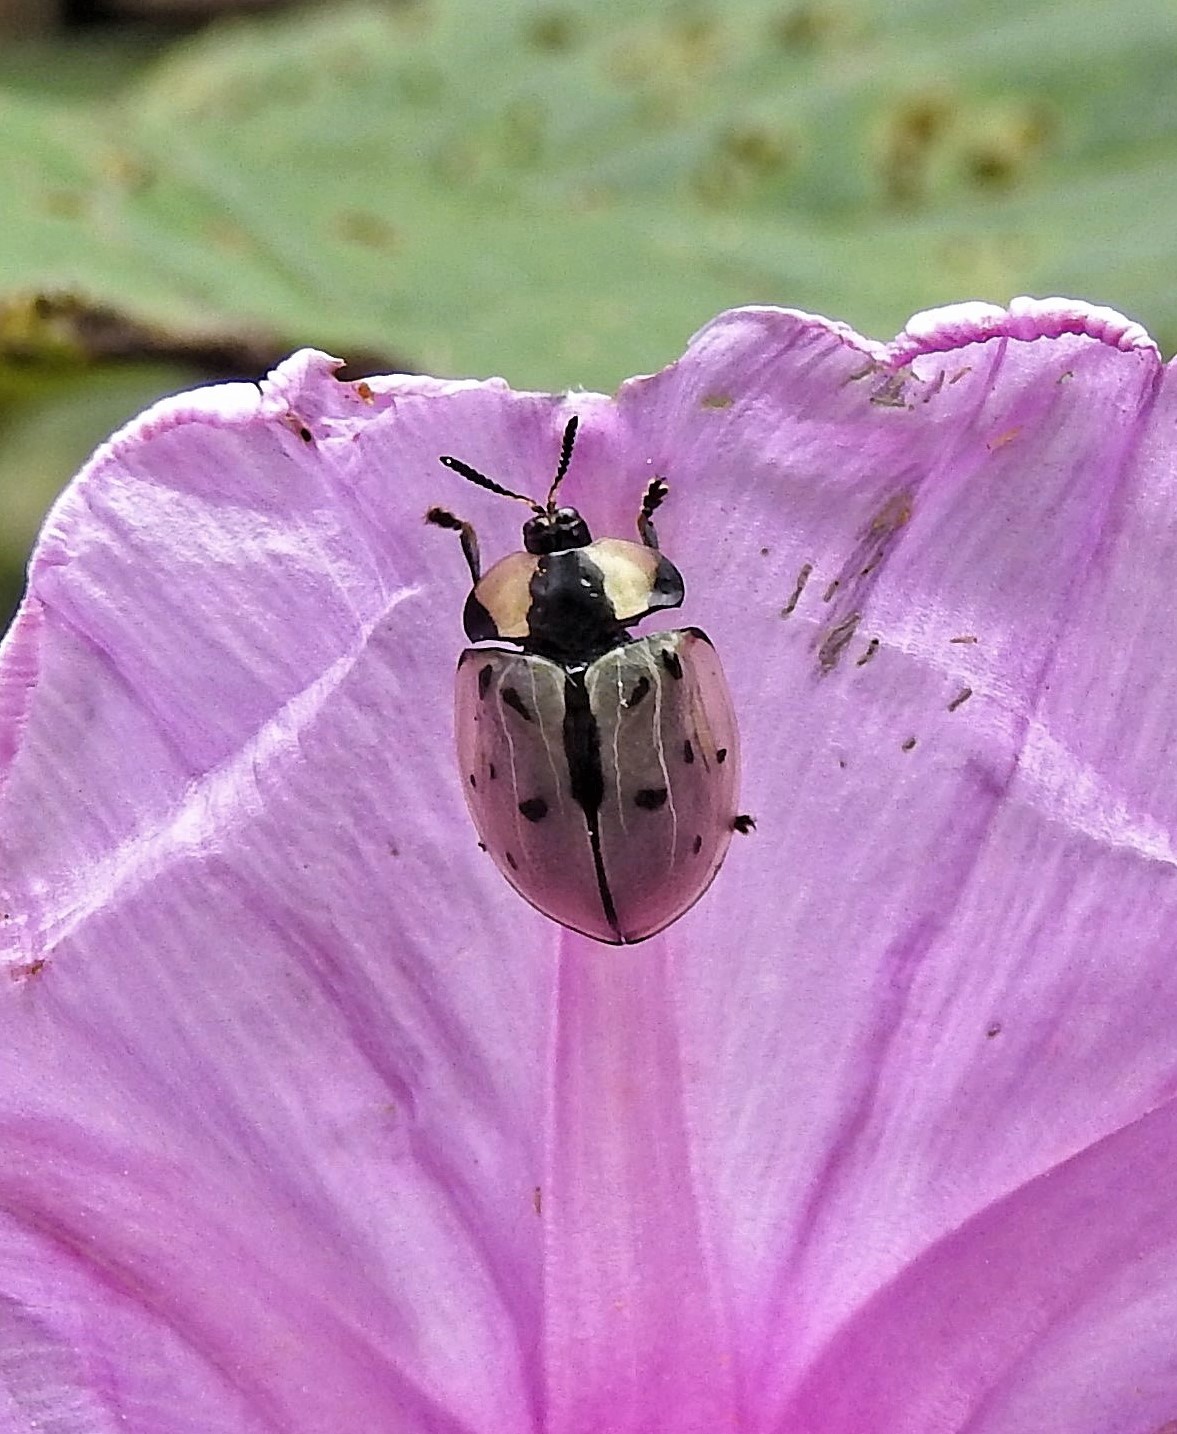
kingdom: Animalia
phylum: Arthropoda
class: Insecta
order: Coleoptera
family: Chrysomelidae
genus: Zatrephina
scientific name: Zatrephina sexlunata
